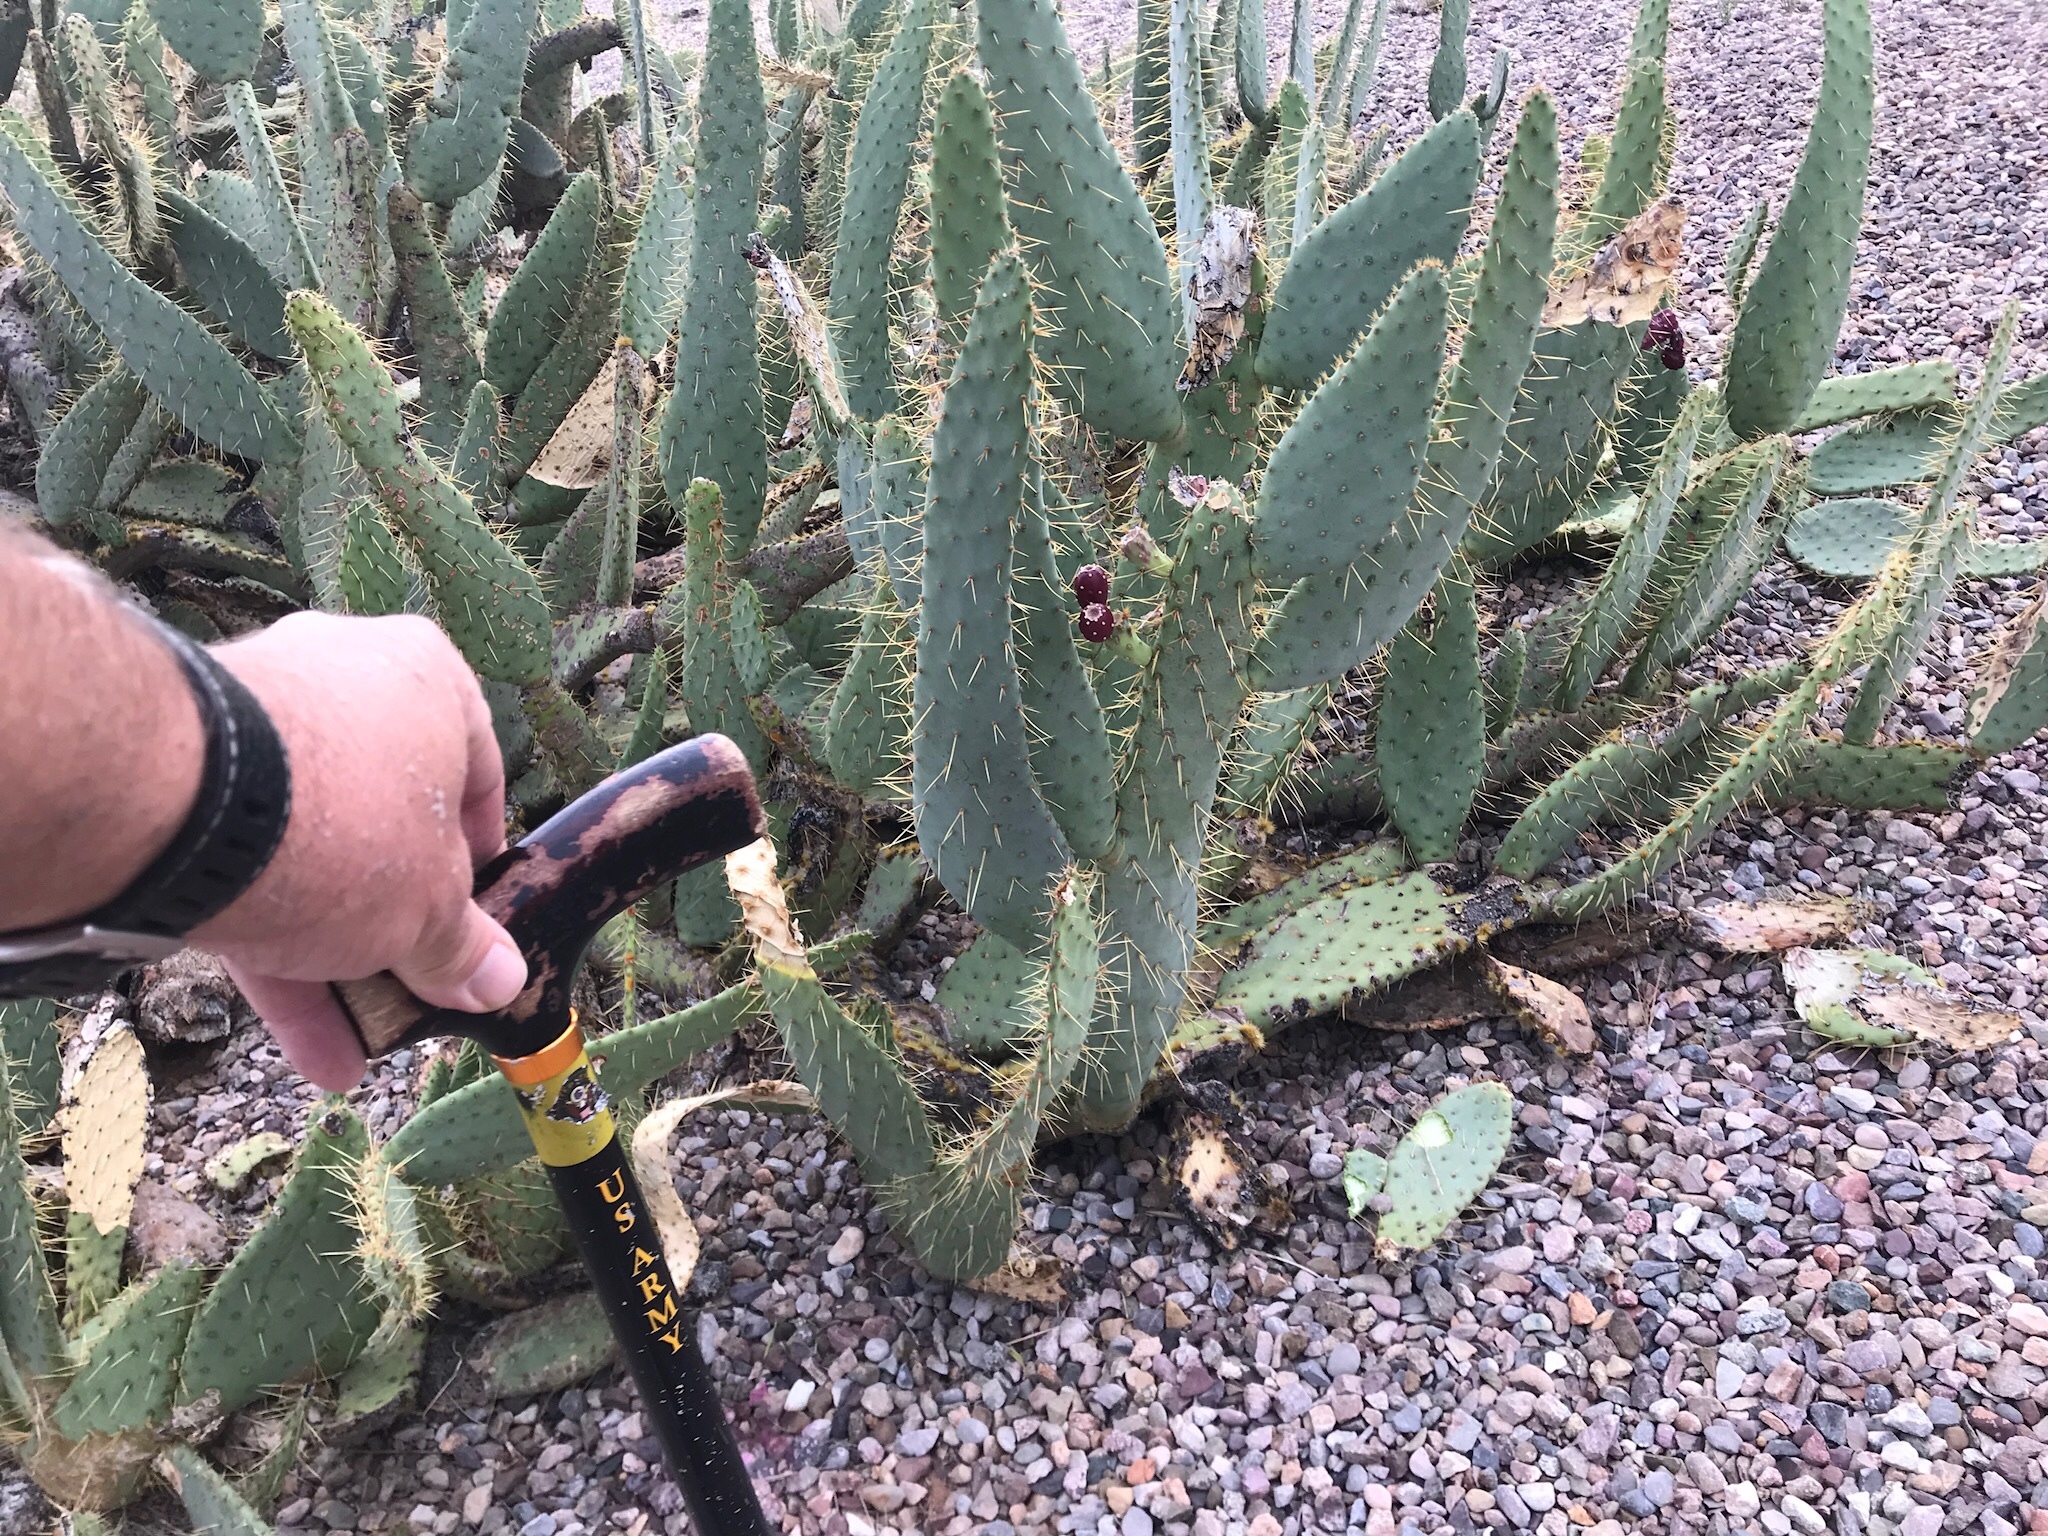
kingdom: Plantae
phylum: Tracheophyta
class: Magnoliopsida
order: Caryophyllales
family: Cactaceae
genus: Opuntia
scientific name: Opuntia engelmannii
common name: Cactus-apple
